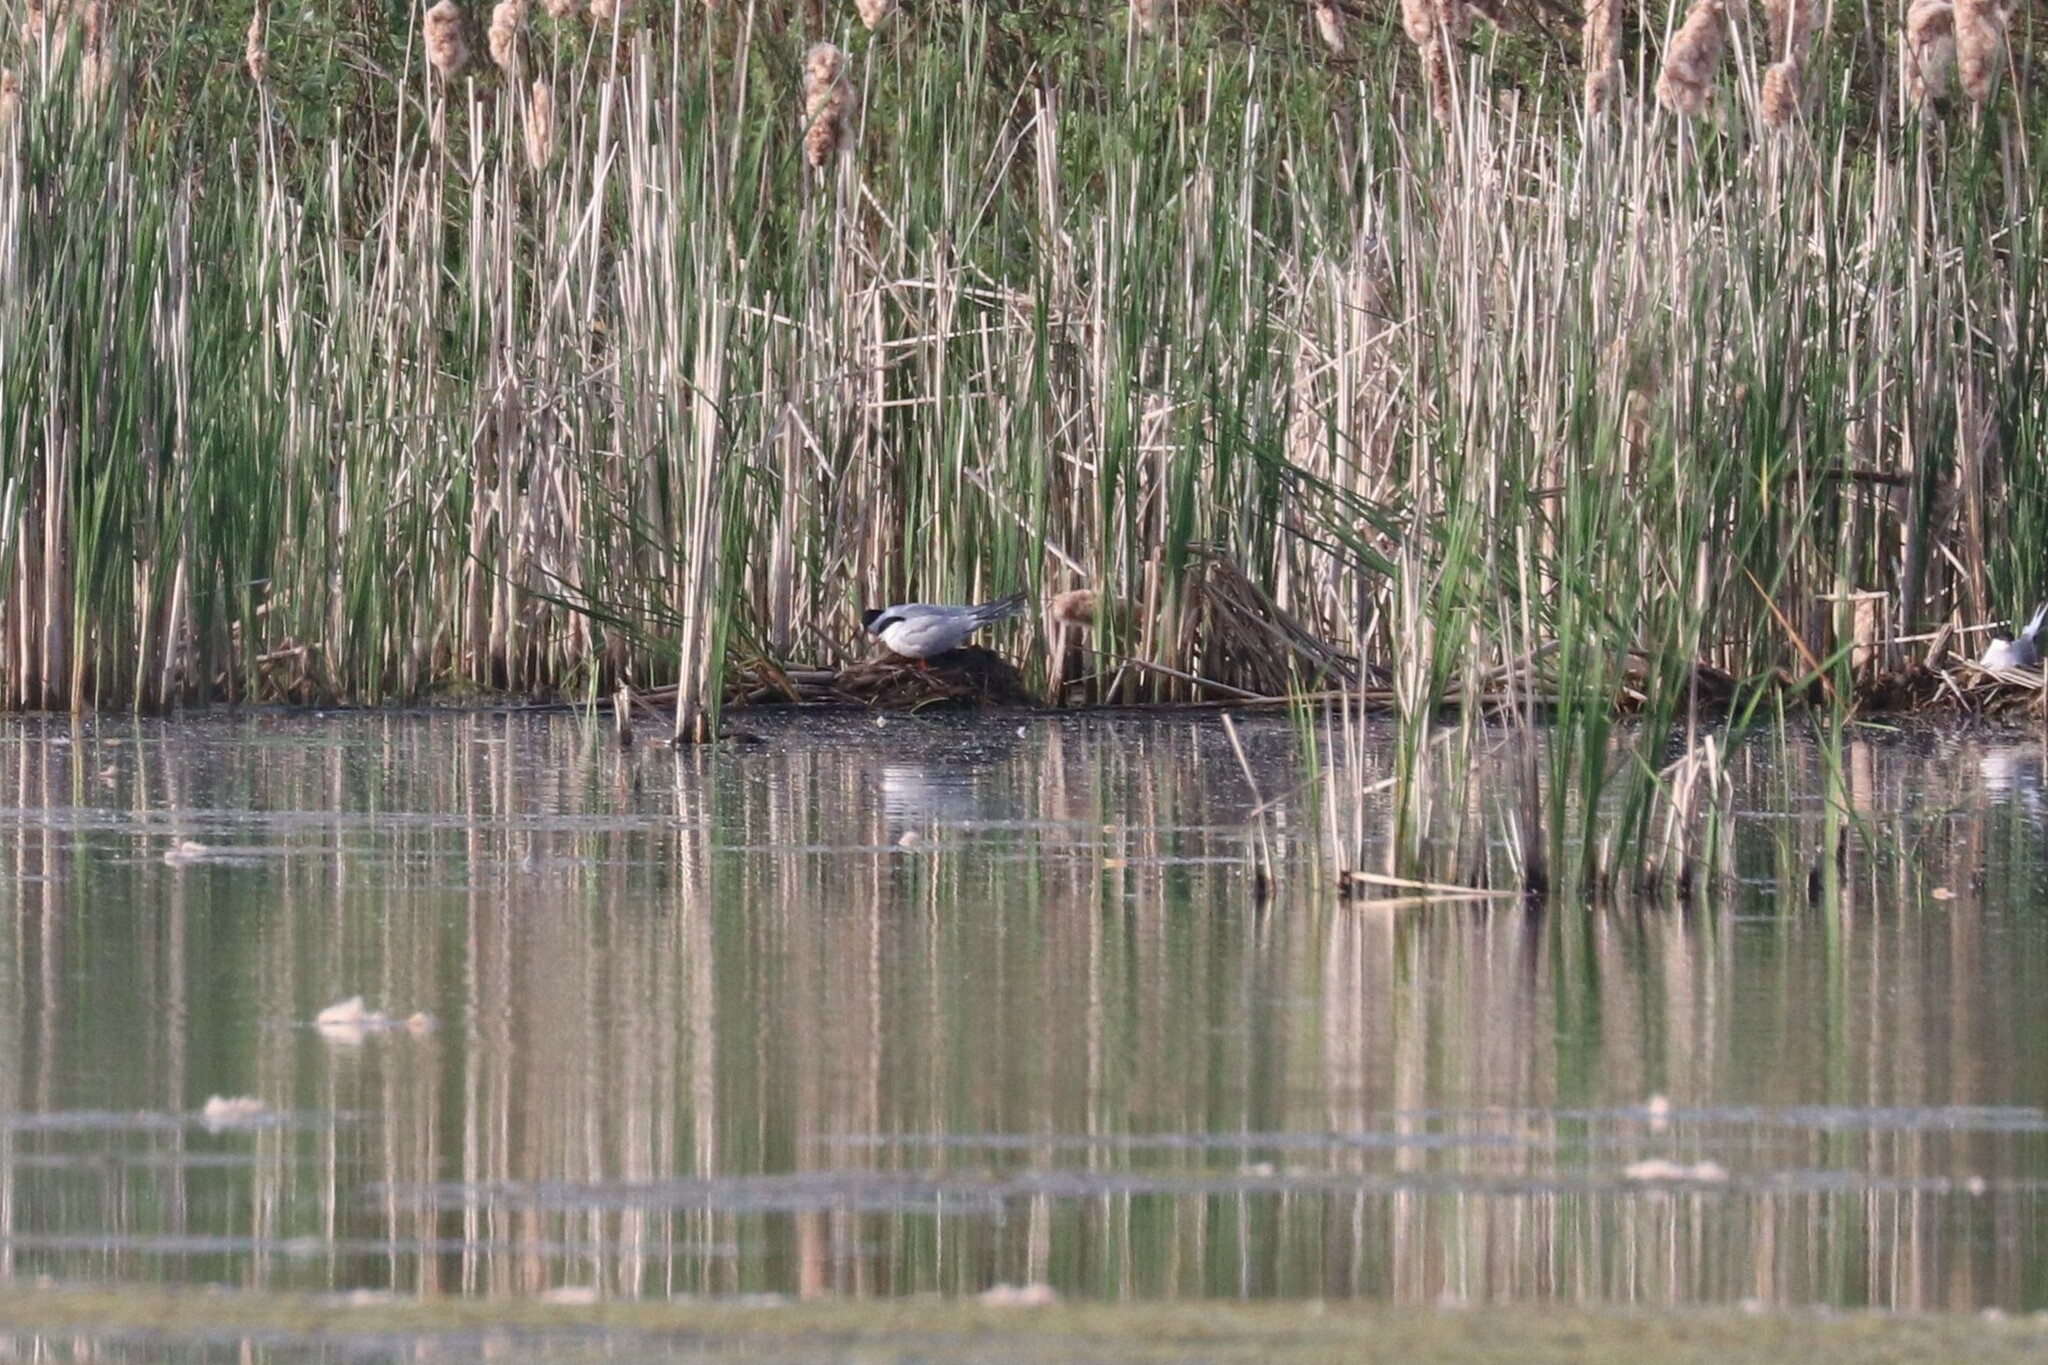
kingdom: Animalia
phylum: Chordata
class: Aves
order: Charadriiformes
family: Laridae
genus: Sterna
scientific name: Sterna hirundo
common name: Common tern
